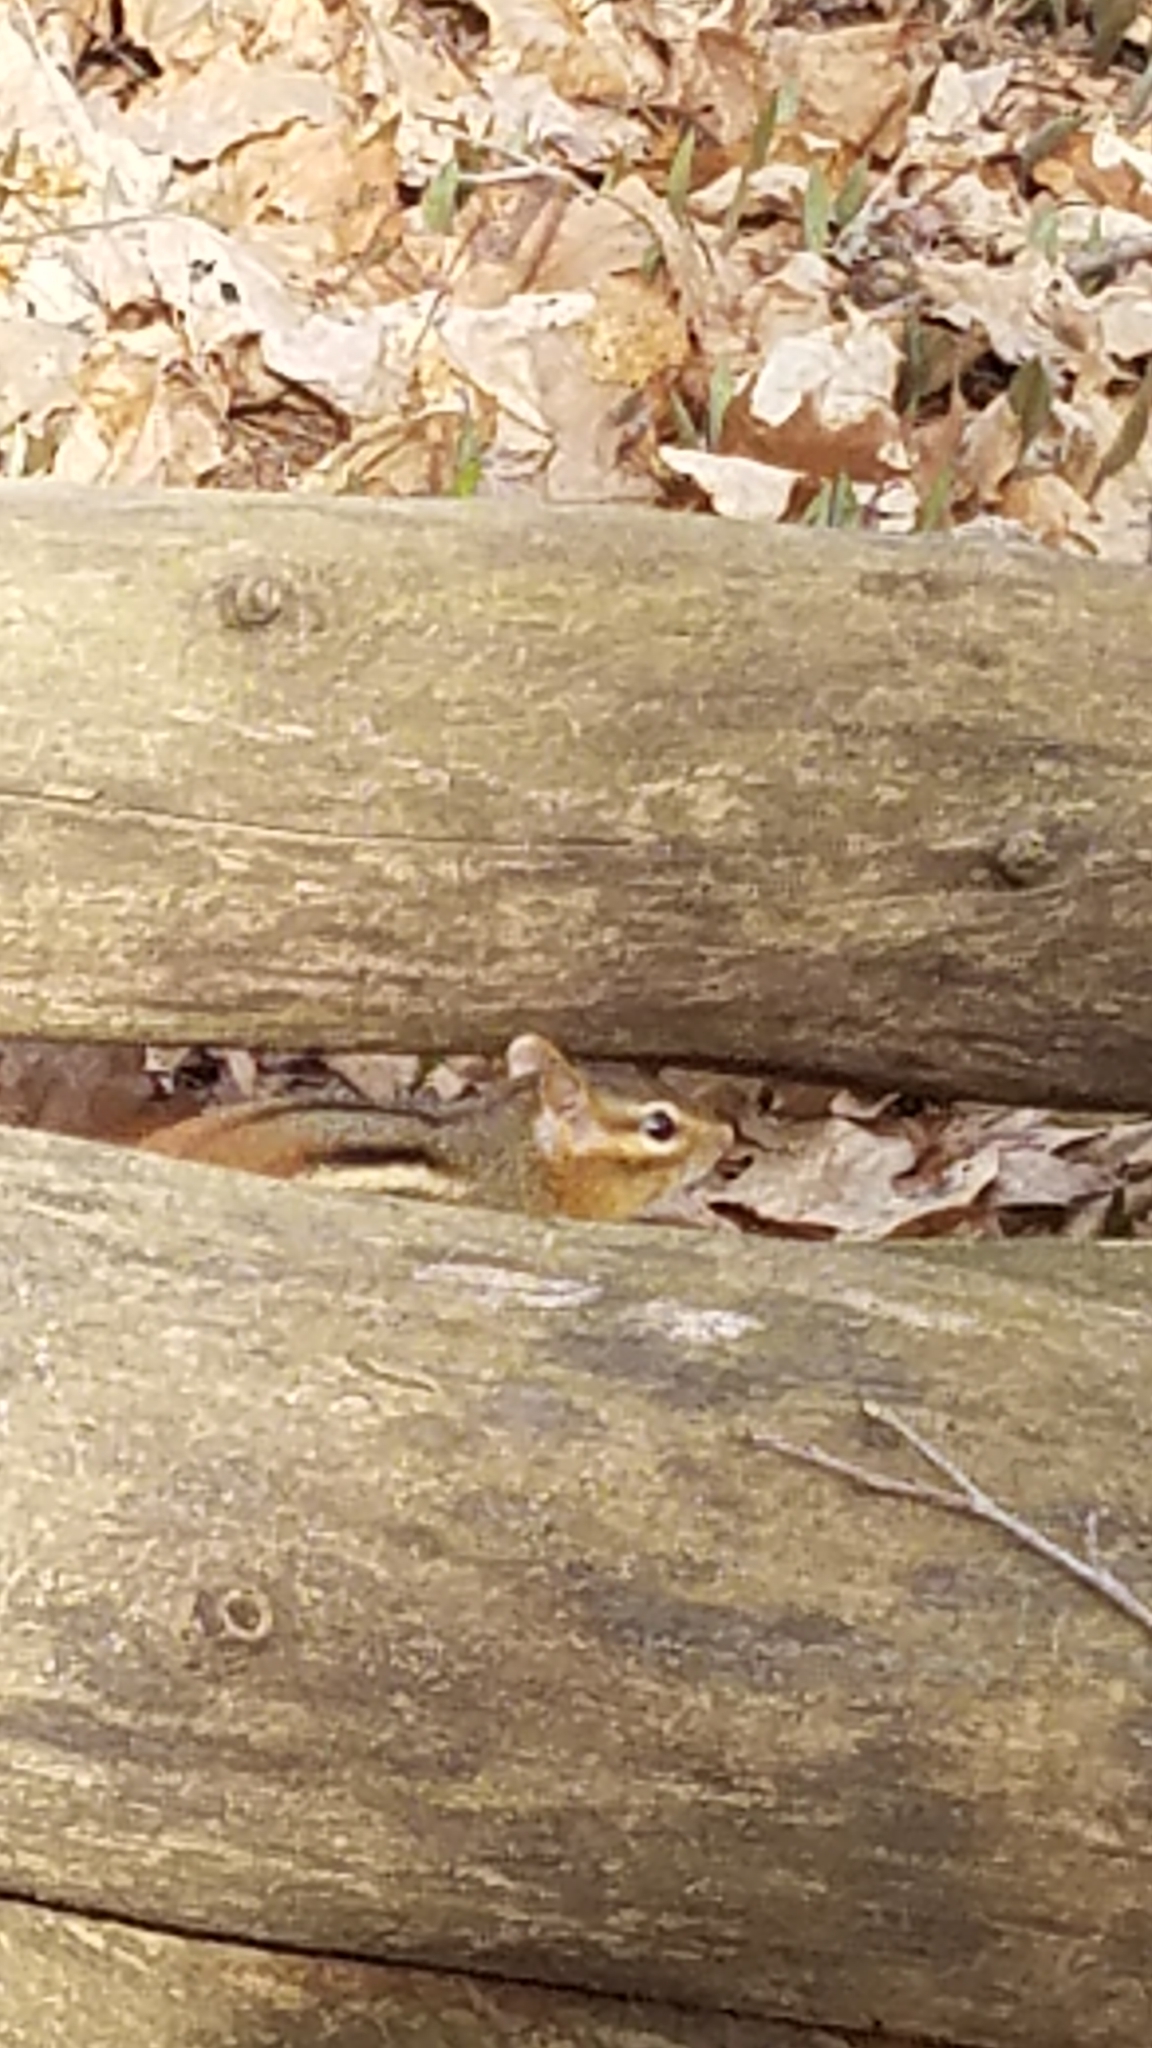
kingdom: Animalia
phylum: Chordata
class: Mammalia
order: Rodentia
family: Sciuridae
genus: Tamias
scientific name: Tamias striatus
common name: Eastern chipmunk
